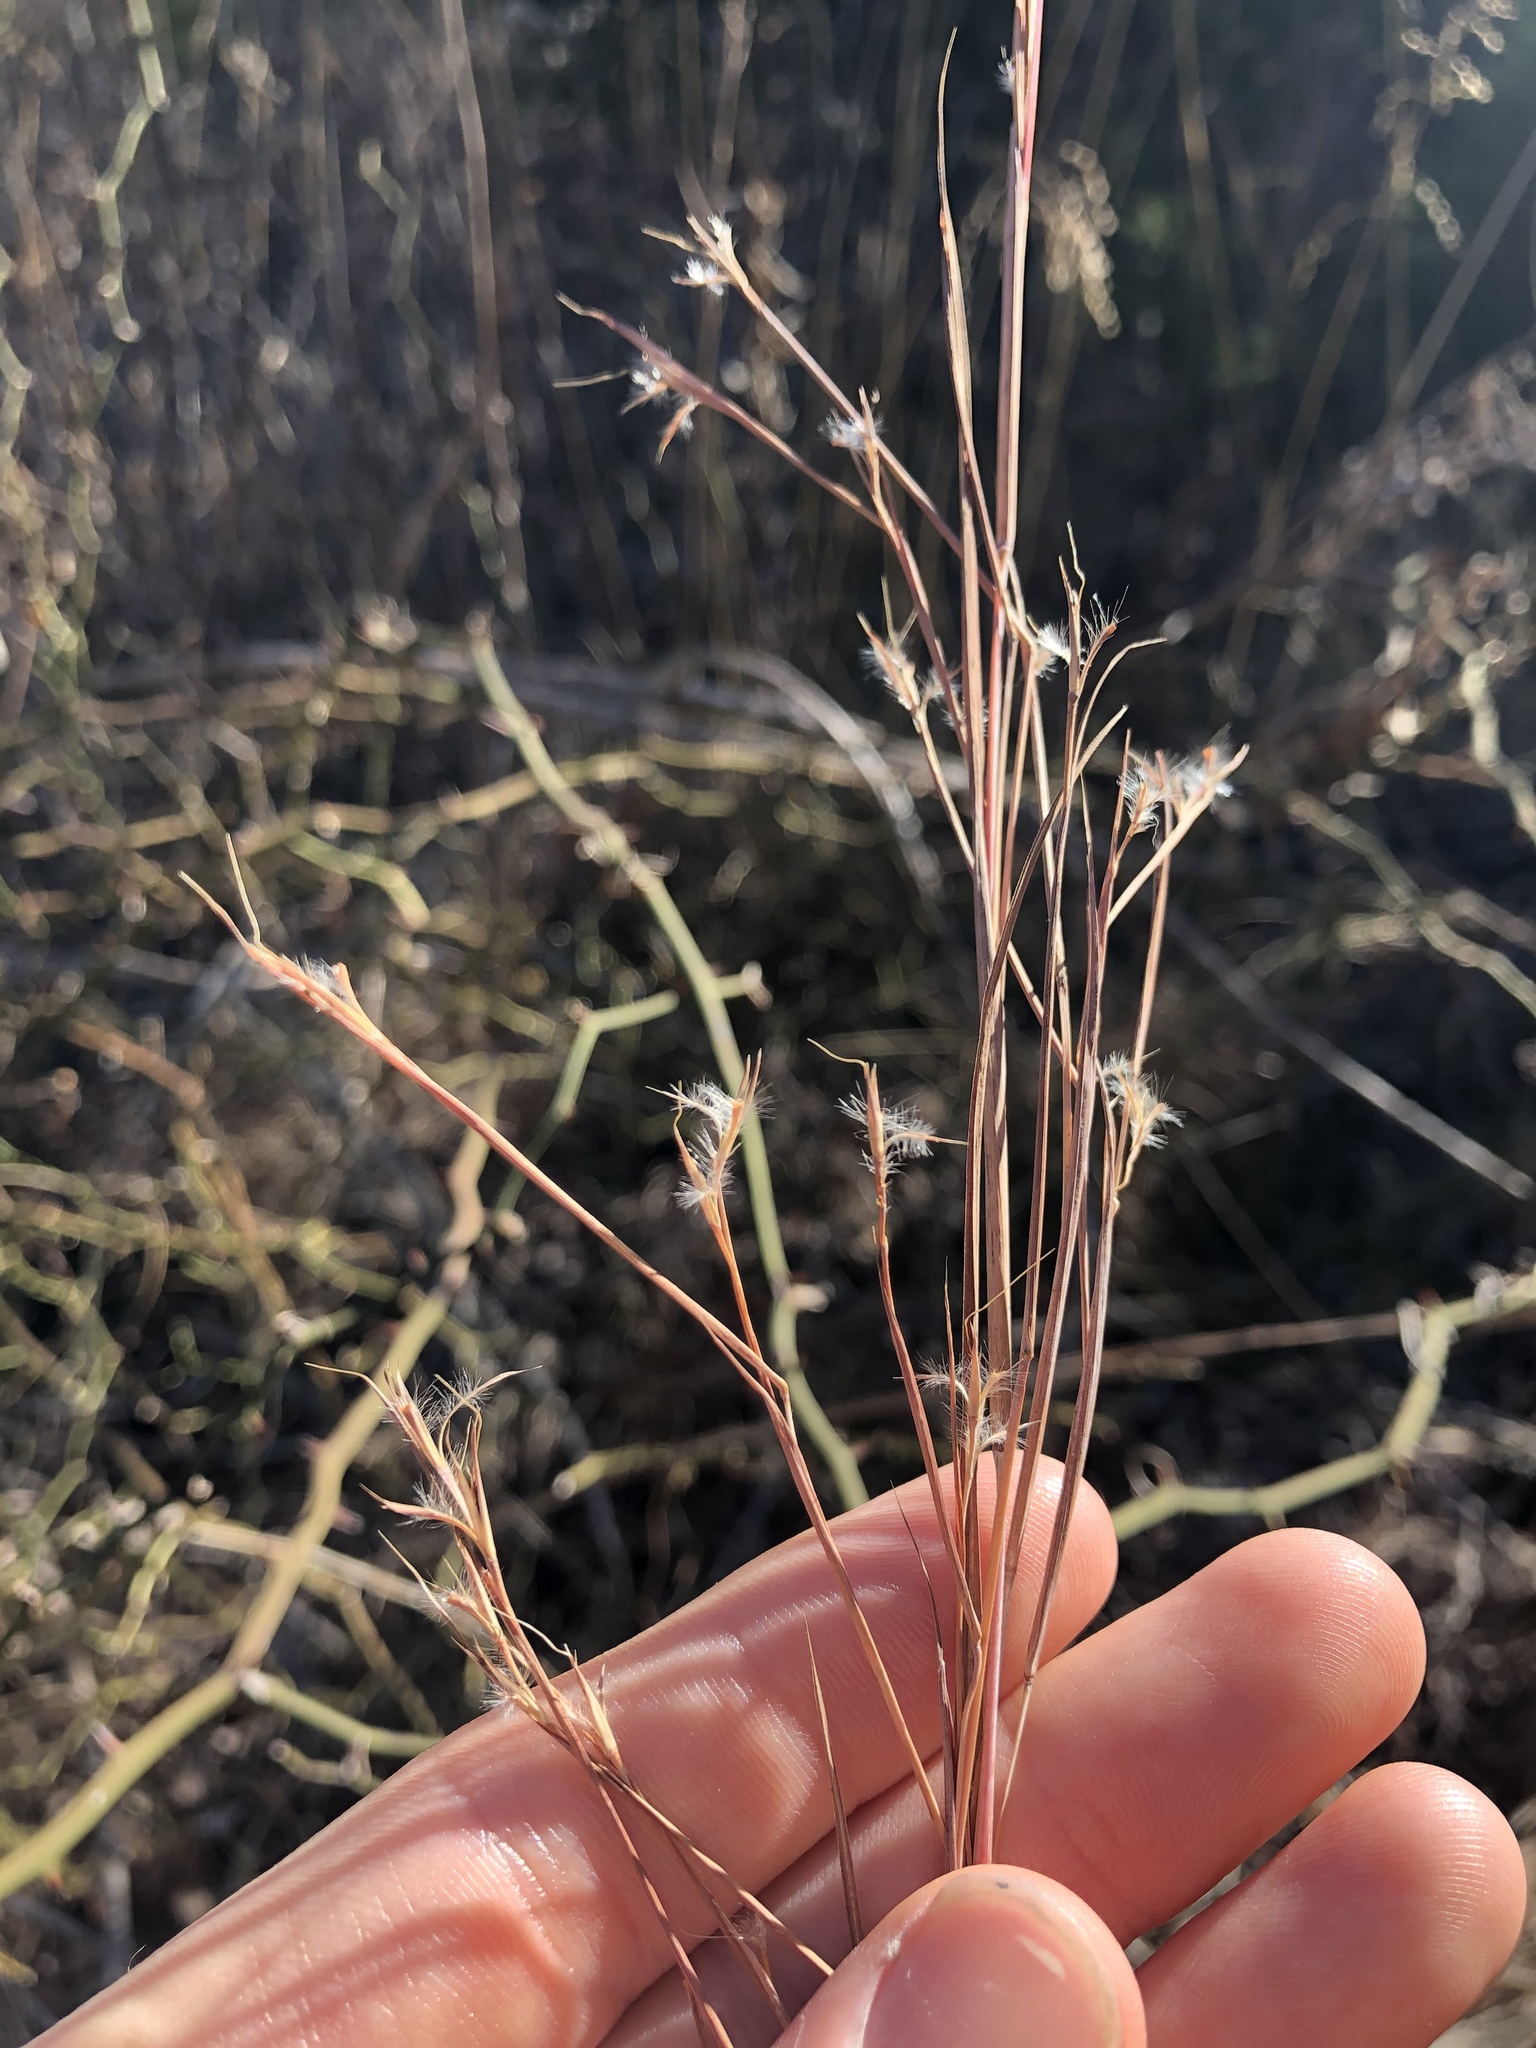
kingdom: Plantae
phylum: Tracheophyta
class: Liliopsida
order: Poales
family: Poaceae
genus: Schizachyrium
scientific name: Schizachyrium scoparium
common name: Little bluestem
